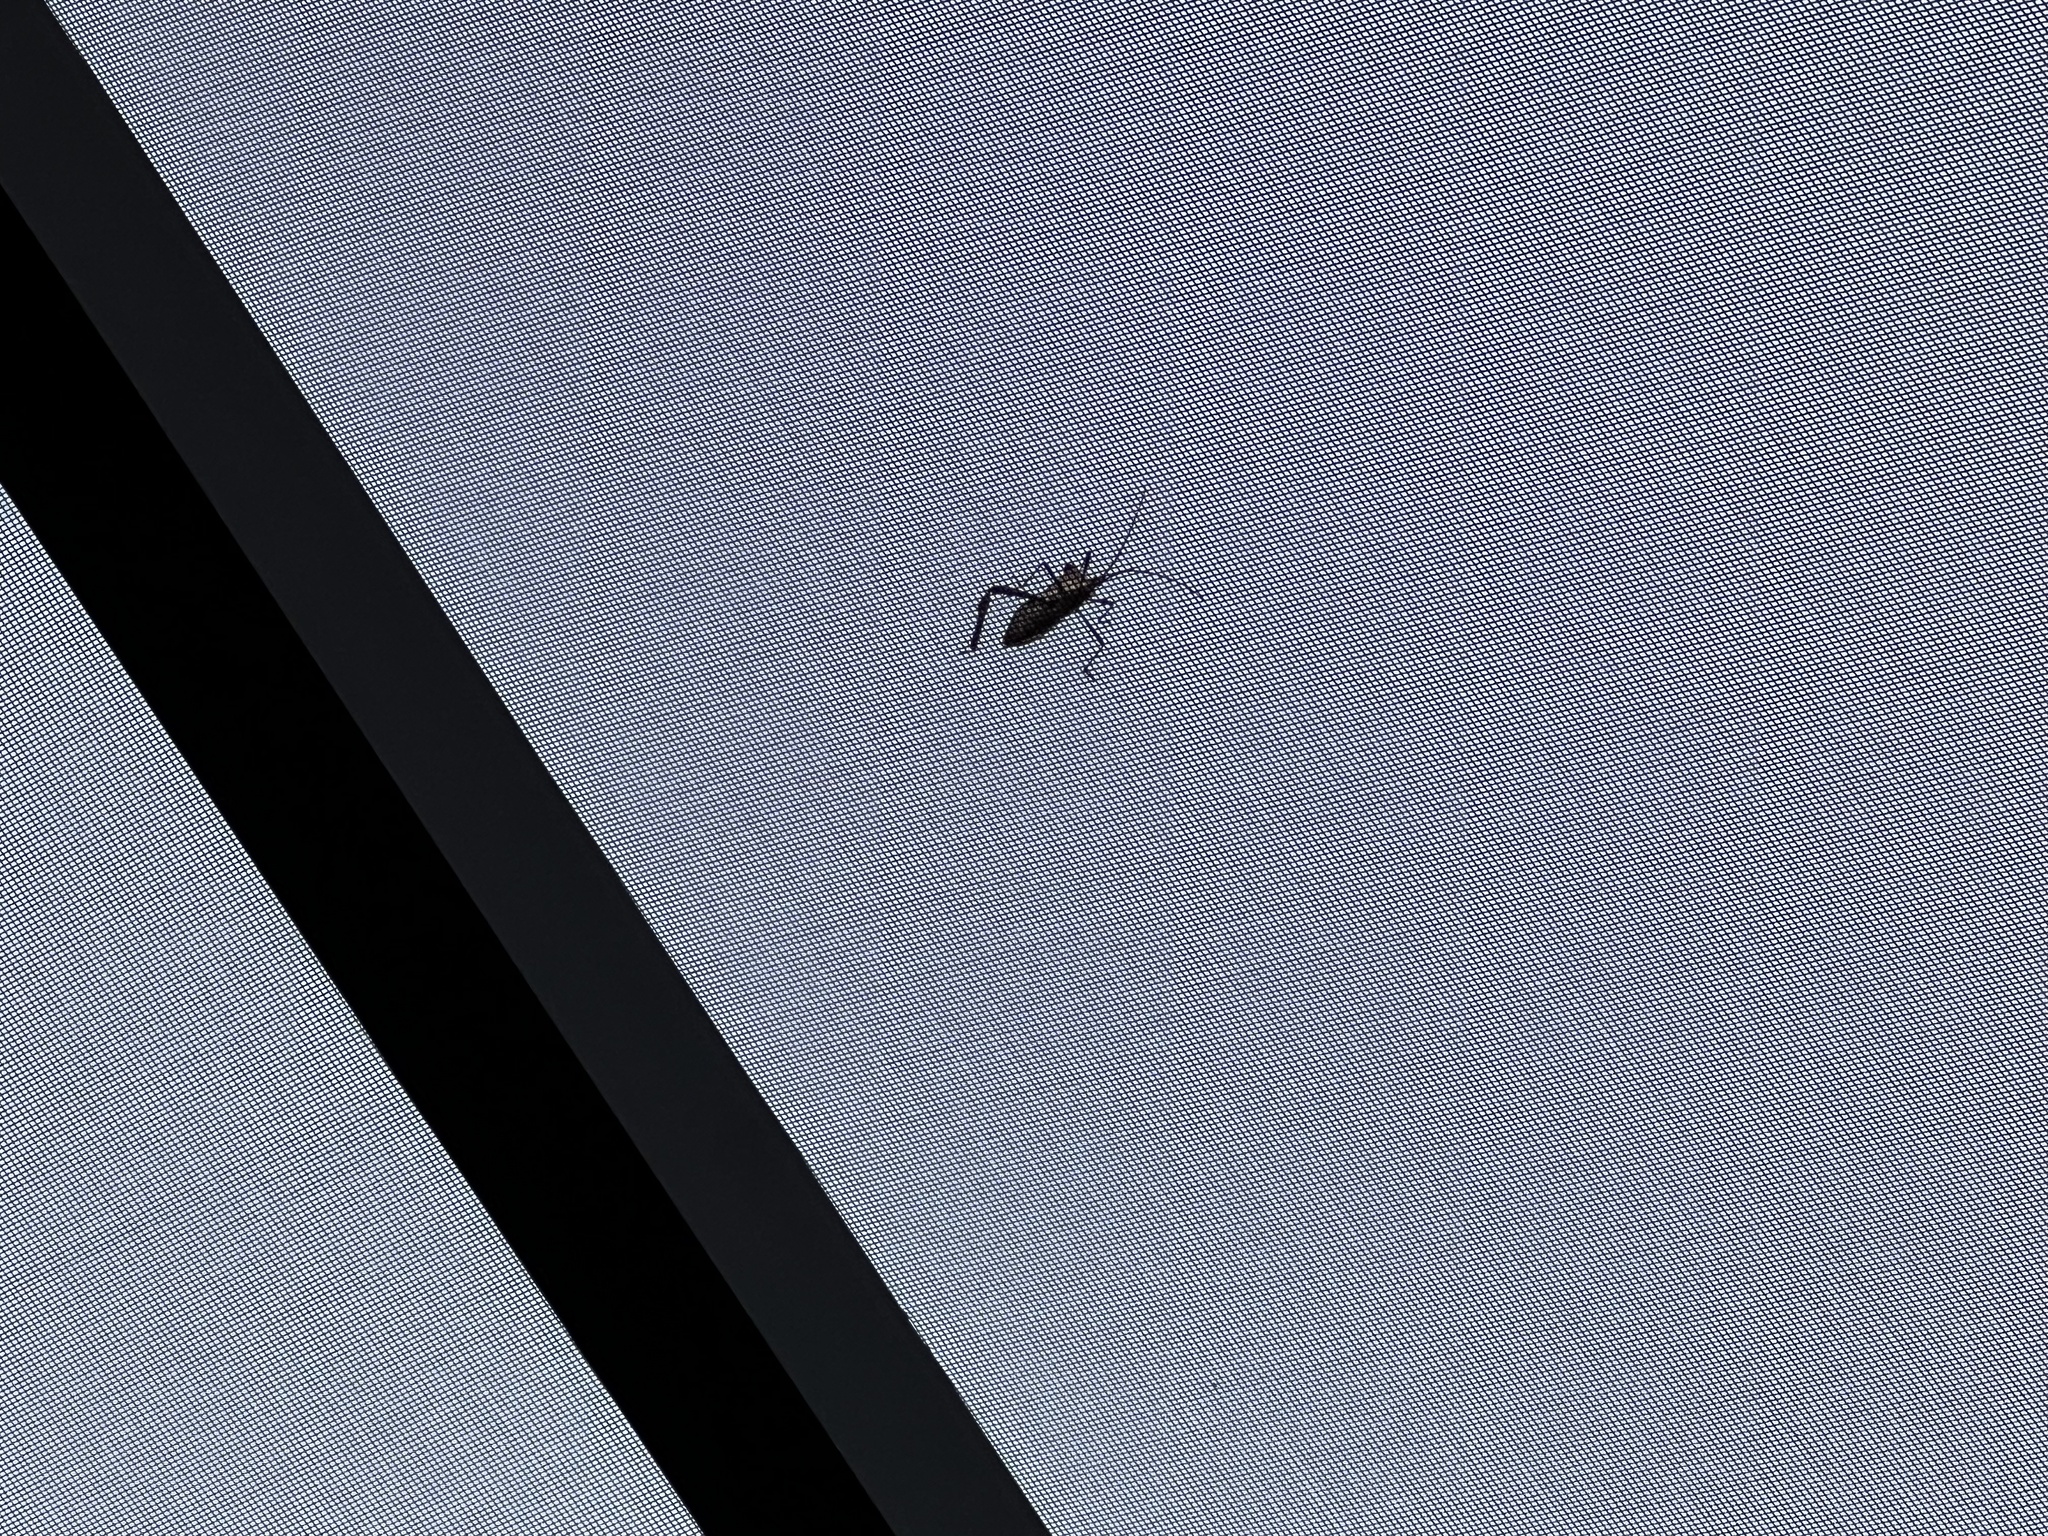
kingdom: Animalia
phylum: Arthropoda
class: Insecta
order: Hemiptera
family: Coreidae
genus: Acanthocephala
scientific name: Acanthocephala declivis
